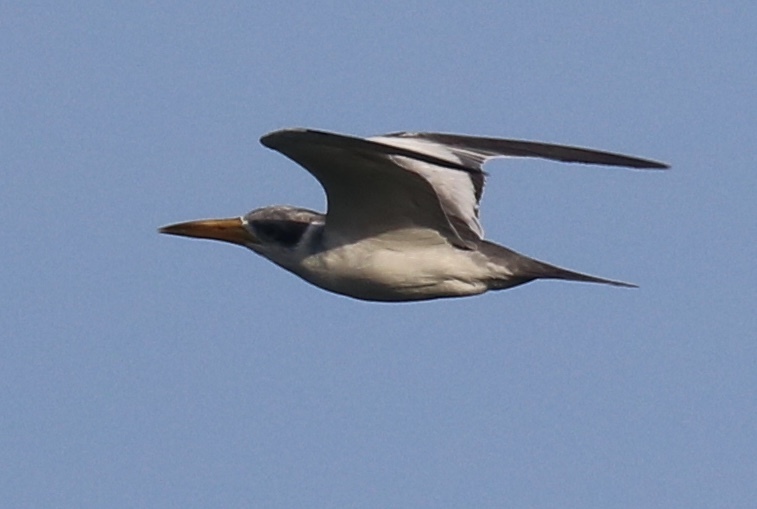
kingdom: Animalia
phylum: Chordata
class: Aves
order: Charadriiformes
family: Laridae
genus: Phaetusa
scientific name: Phaetusa simplex
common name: Large-billed tern
